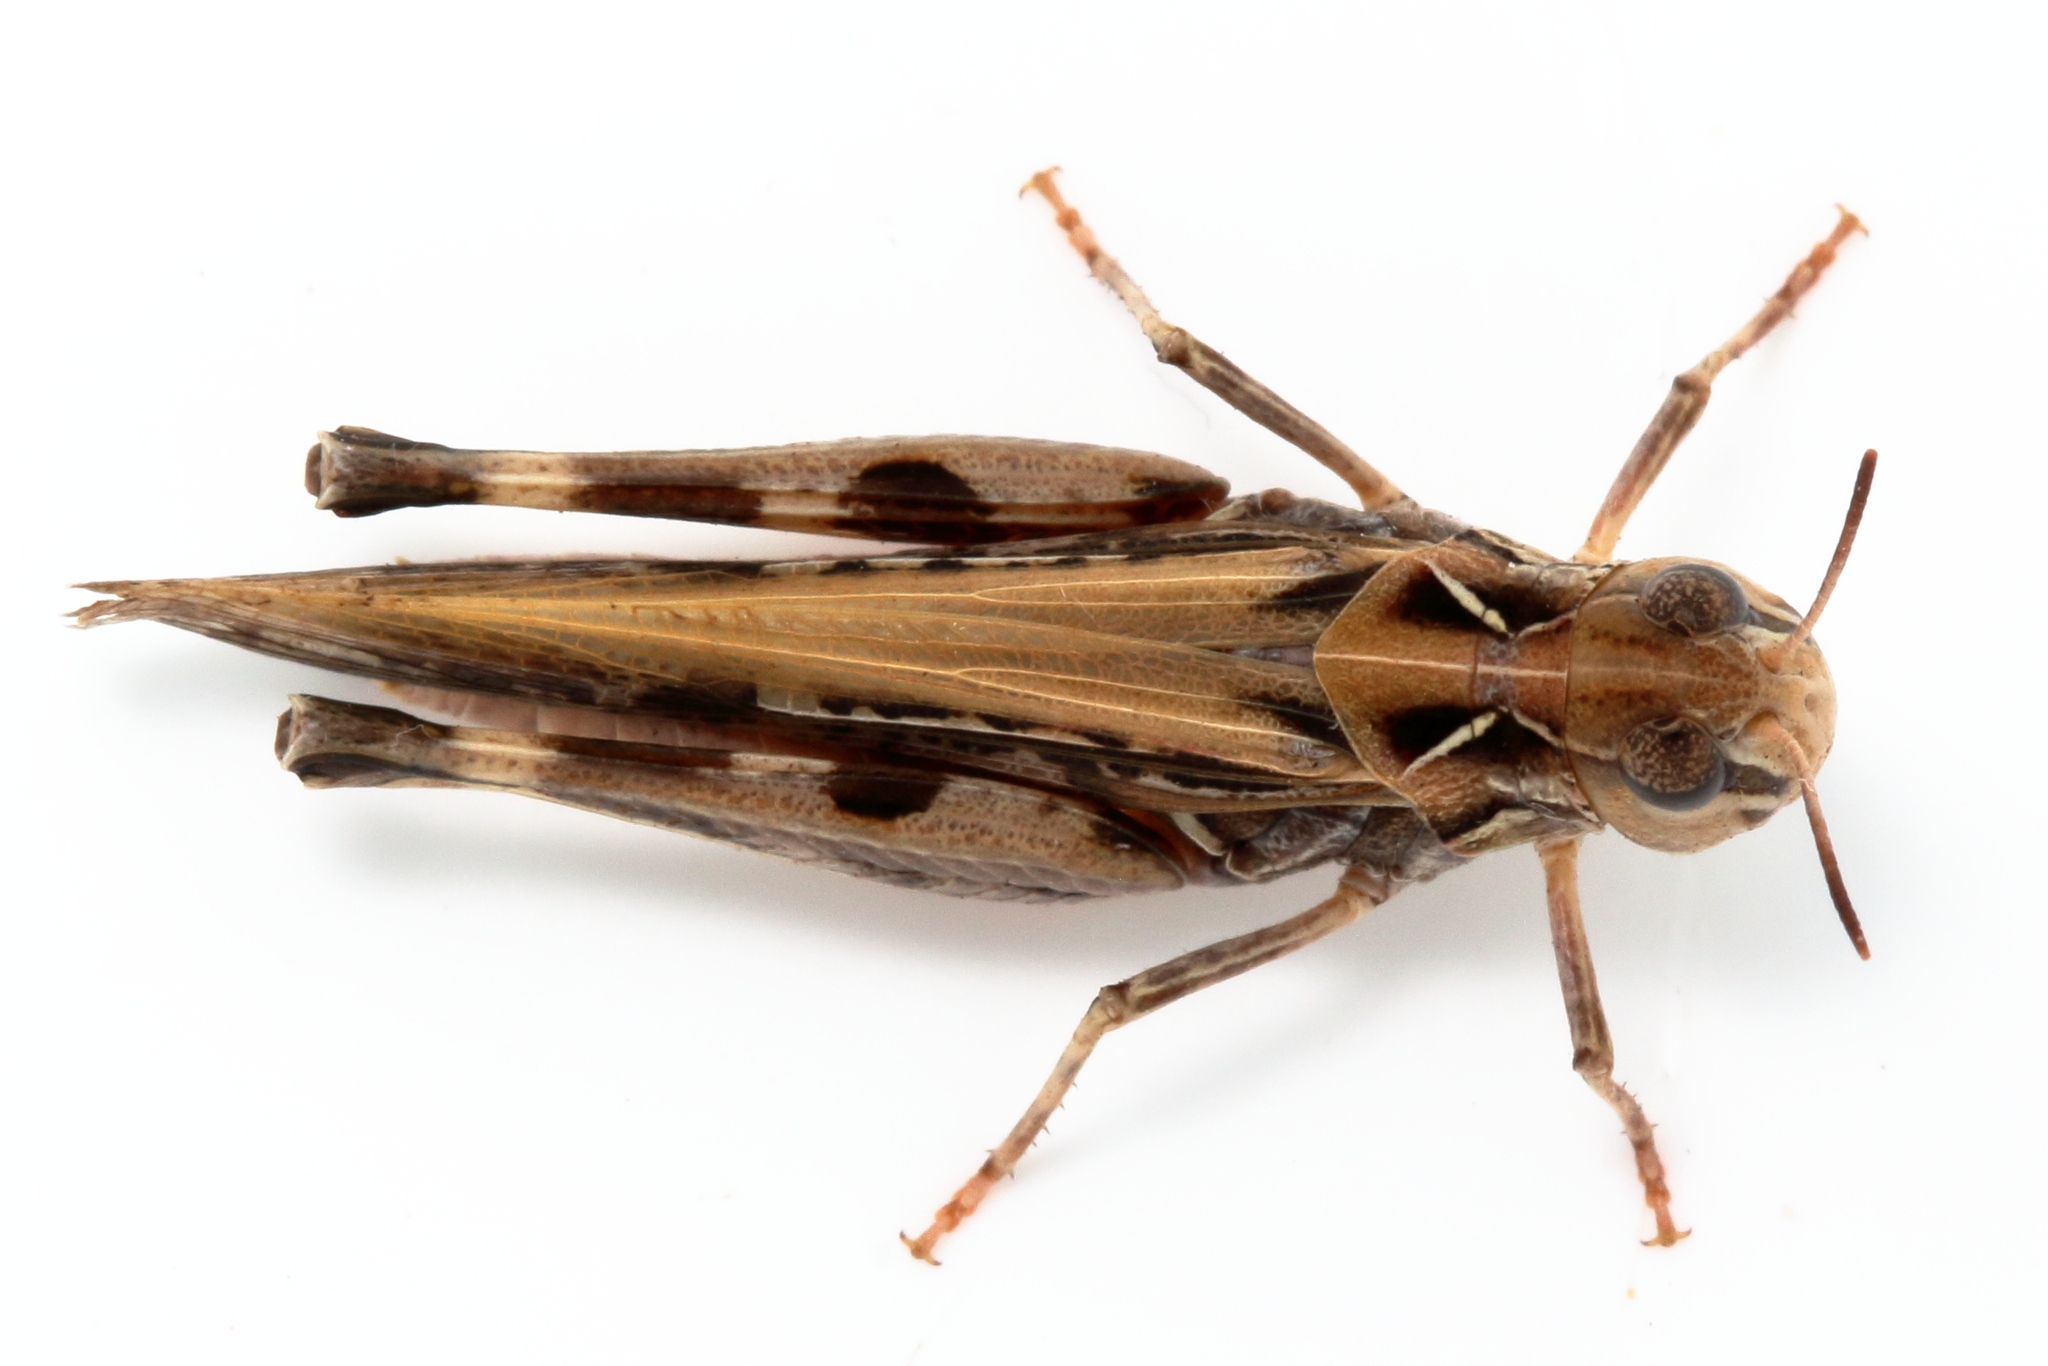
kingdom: Animalia
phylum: Arthropoda
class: Insecta
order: Orthoptera
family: Acrididae
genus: Austroicetes
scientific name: Austroicetes vulgaris
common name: Southeastern austroicetes
